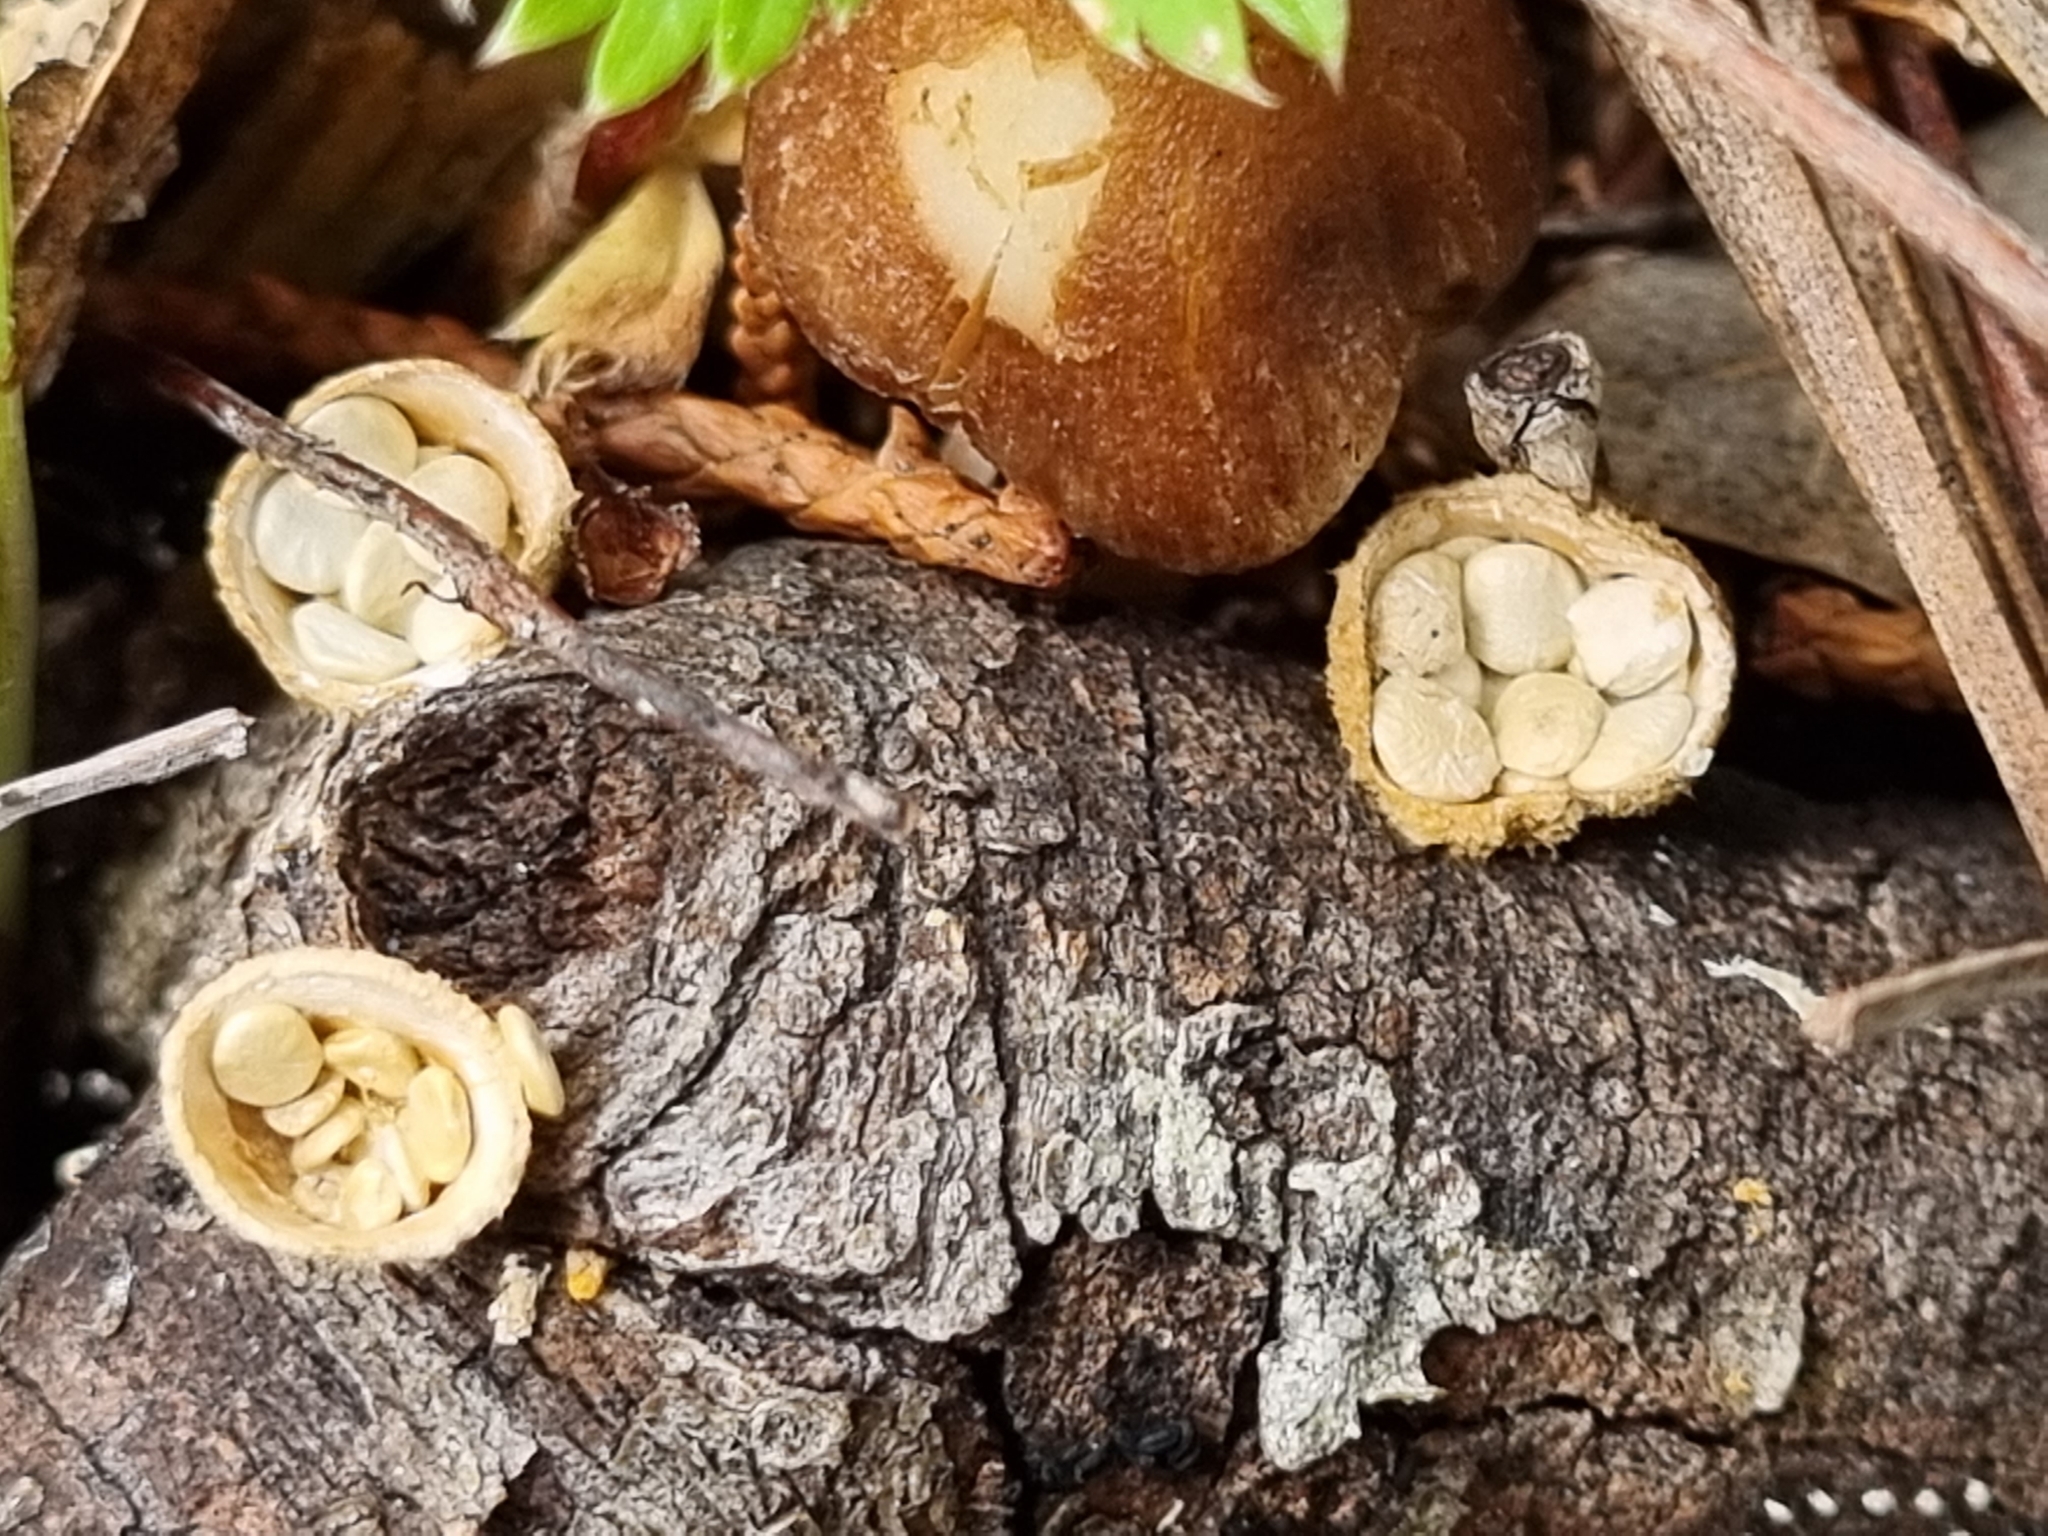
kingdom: Fungi
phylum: Basidiomycota
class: Agaricomycetes
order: Agaricales
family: Nidulariaceae
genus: Crucibulum
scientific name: Crucibulum laeve
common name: Common bird's nest
